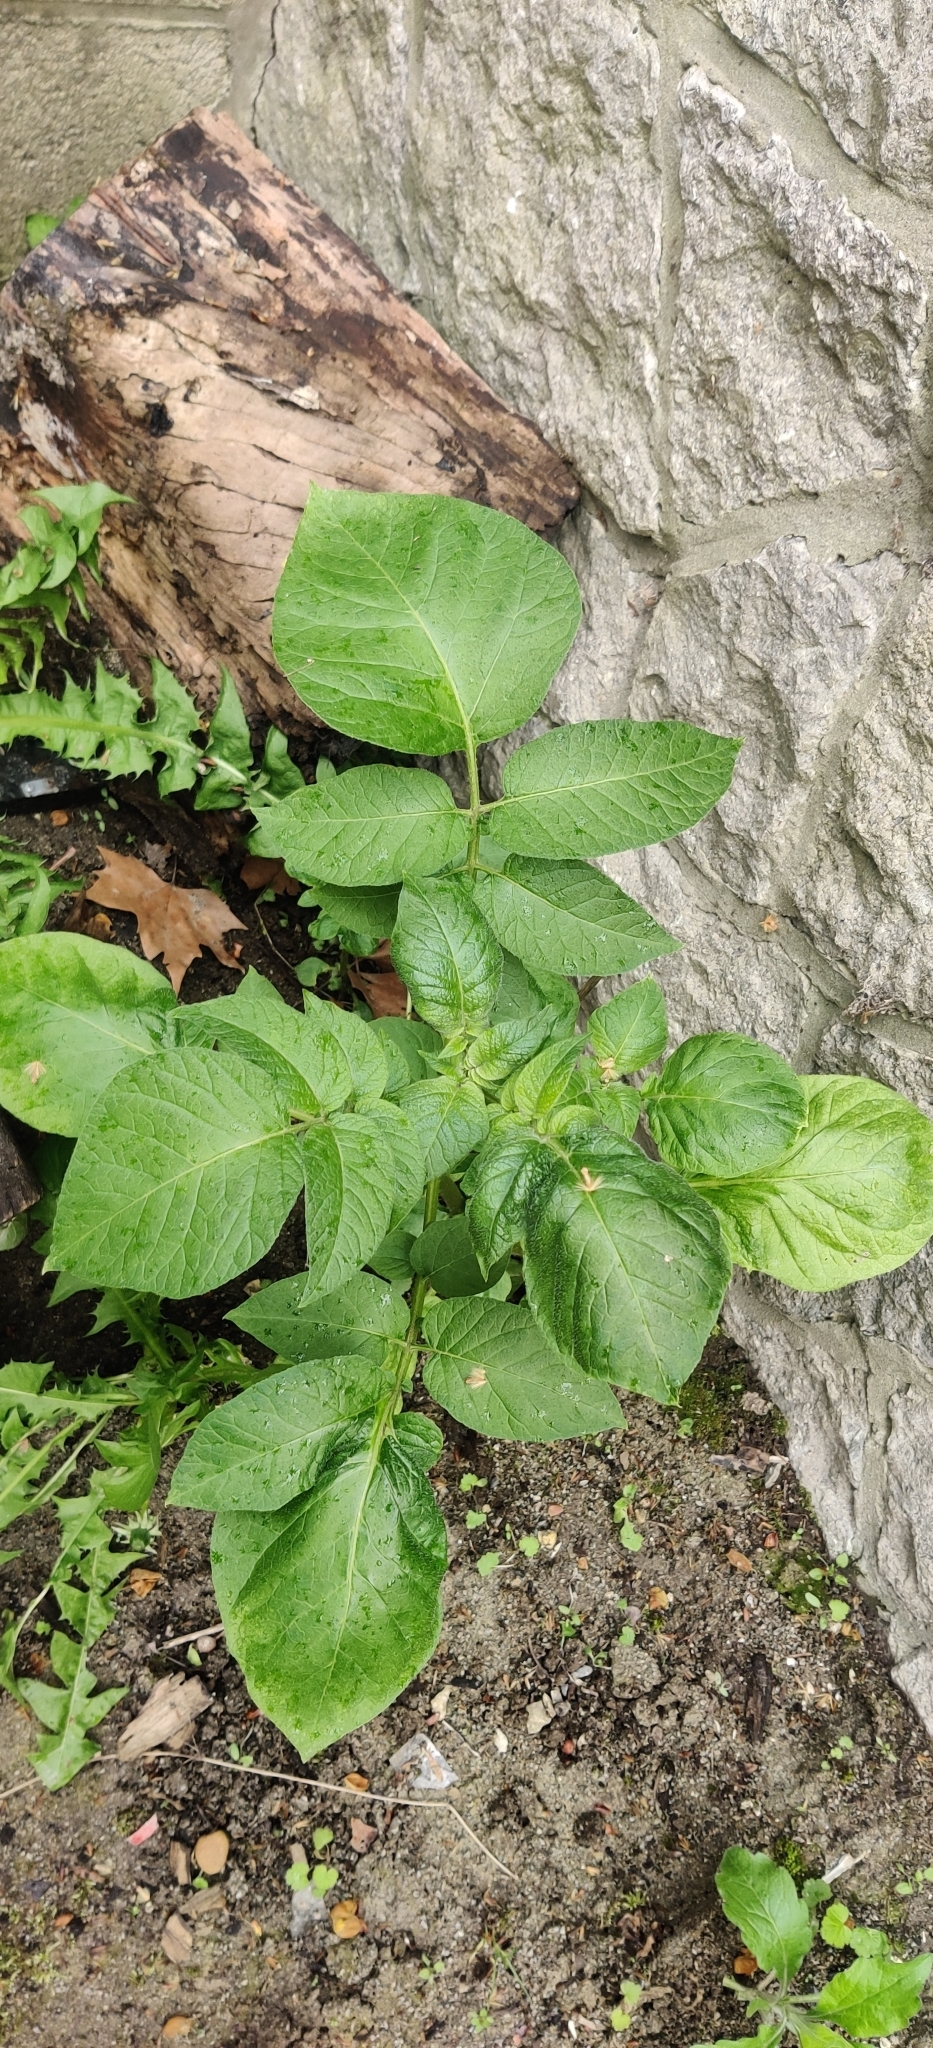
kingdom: Plantae
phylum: Tracheophyta
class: Magnoliopsida
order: Solanales
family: Solanaceae
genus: Solanum
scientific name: Solanum tuberosum
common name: Potato
